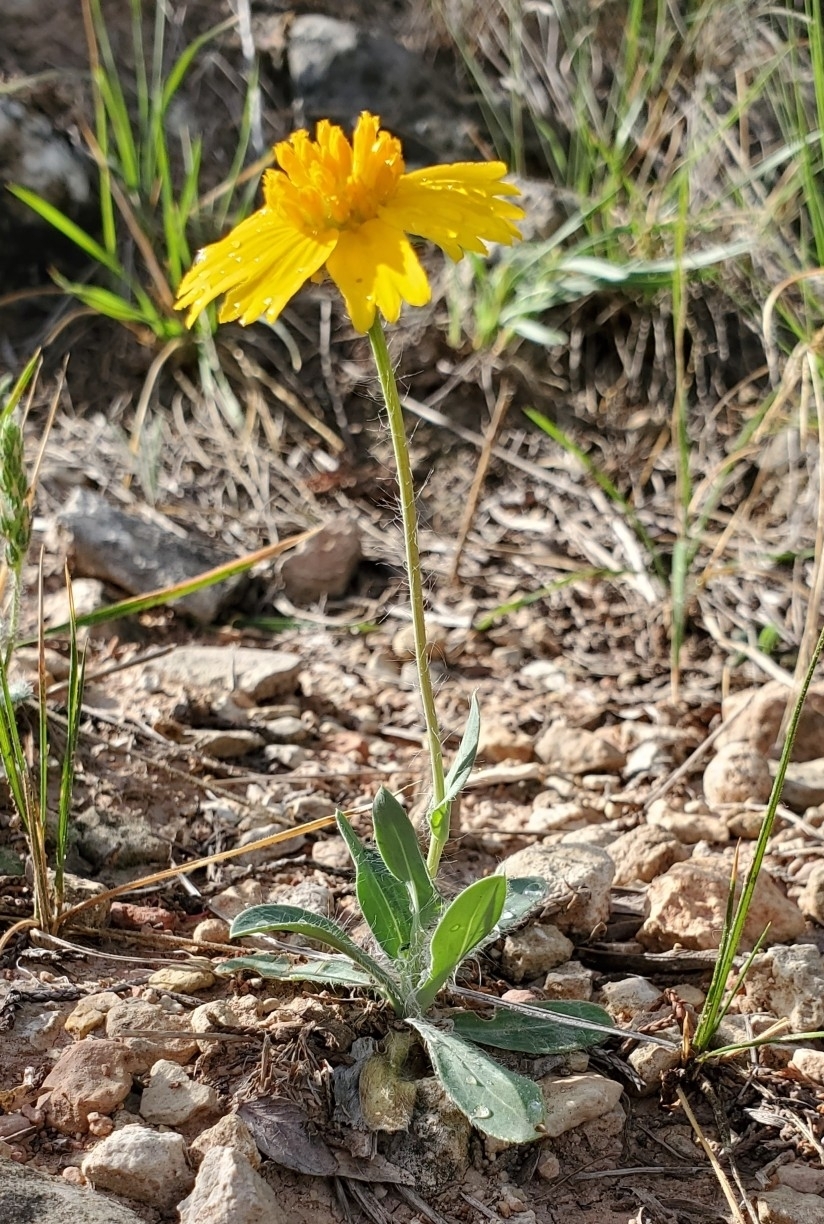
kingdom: Plantae
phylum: Tracheophyta
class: Magnoliopsida
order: Asterales
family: Asteraceae
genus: Amblyolepis
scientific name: Amblyolepis setigera
